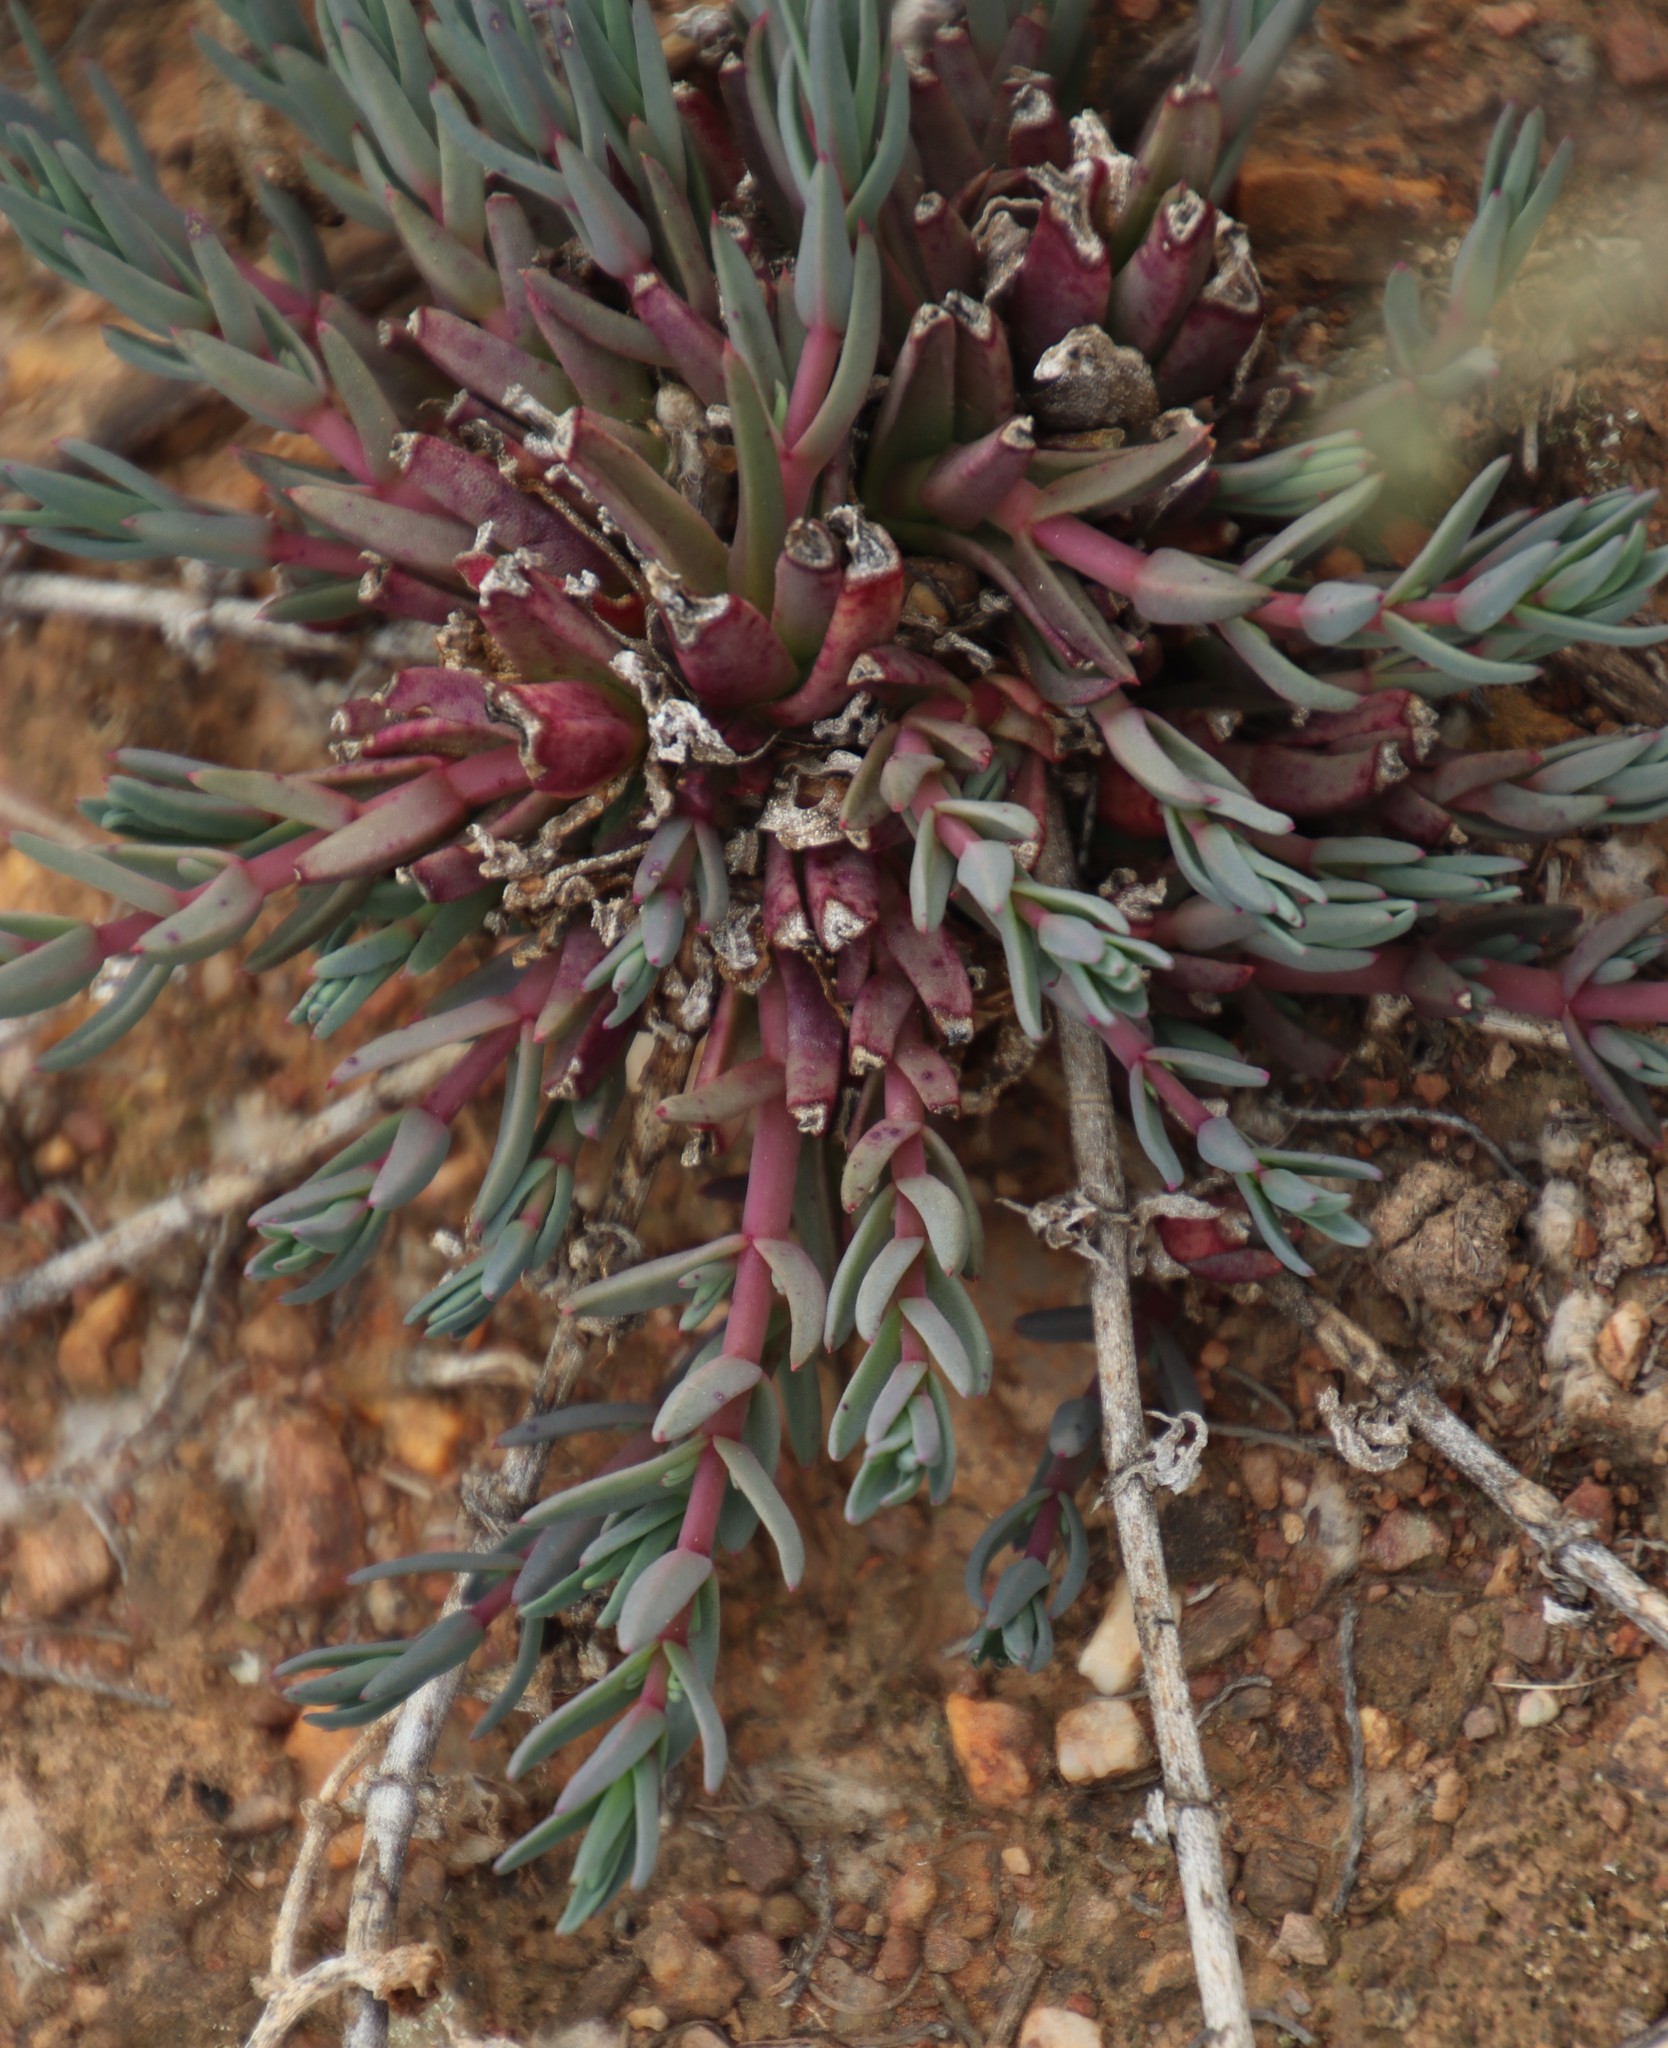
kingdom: Plantae
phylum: Tracheophyta
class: Magnoliopsida
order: Caryophyllales
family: Aizoaceae
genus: Mesembryanthemum
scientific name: Mesembryanthemum pallens
